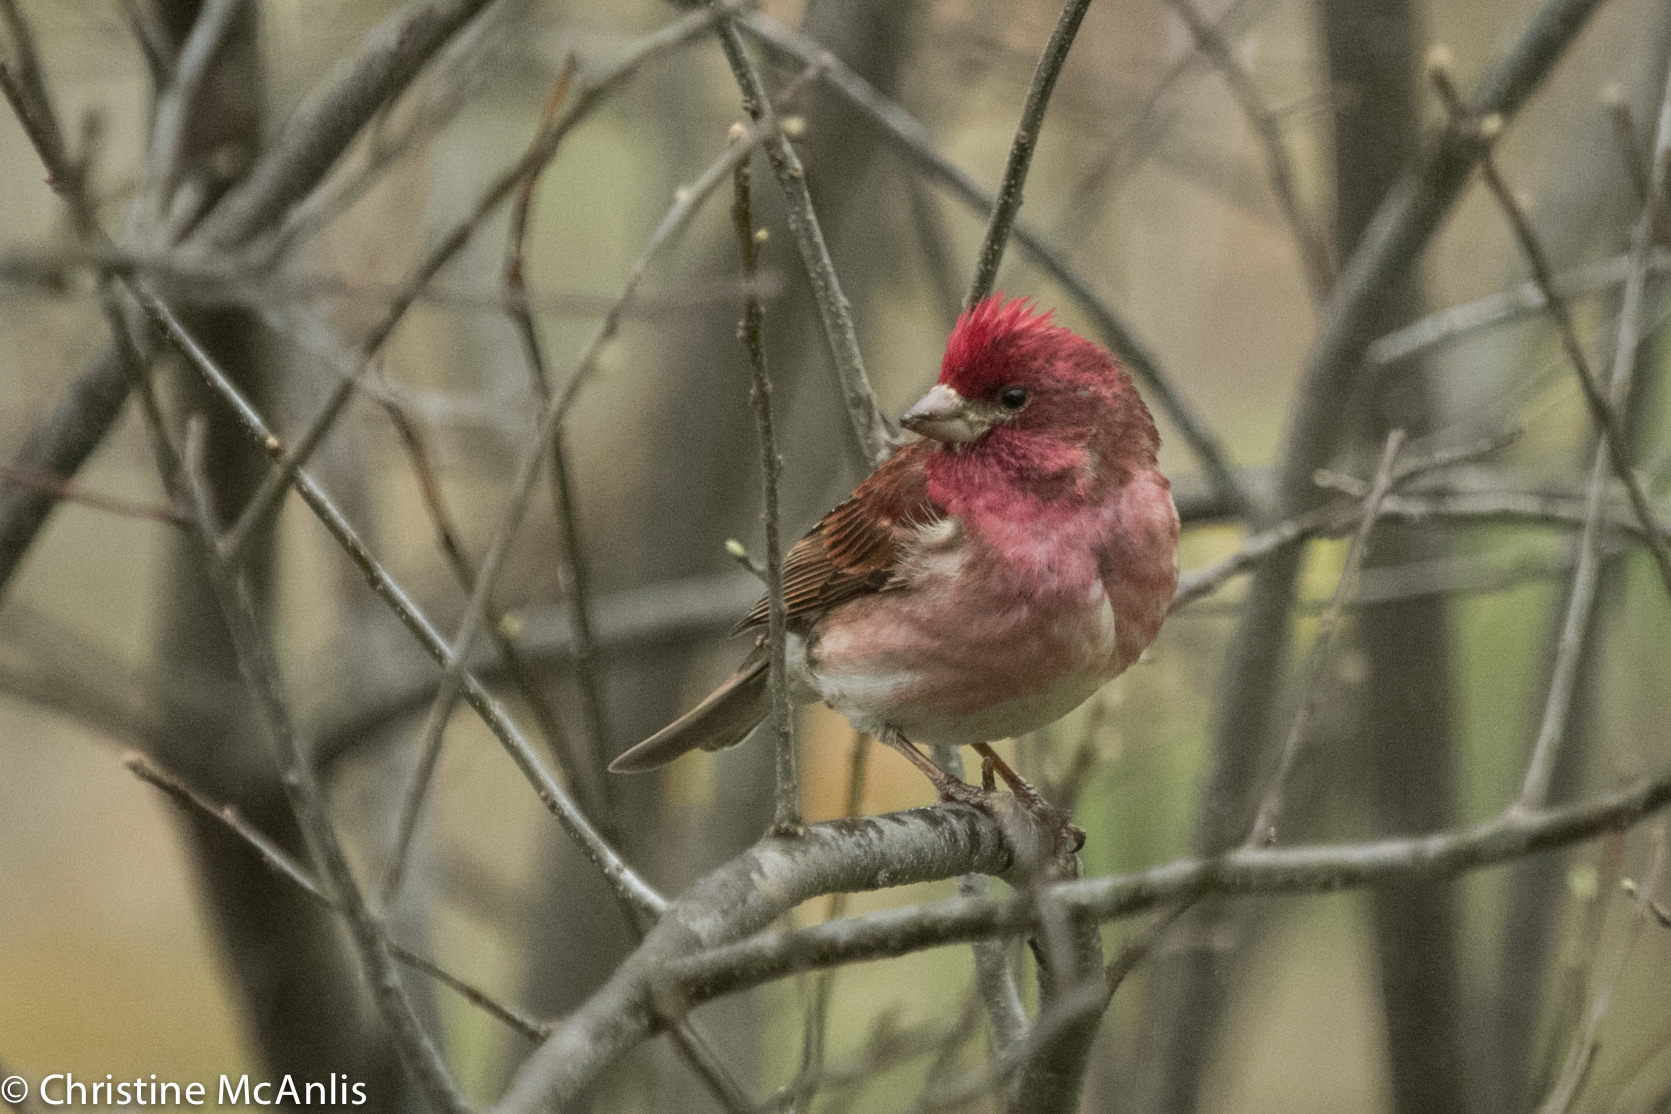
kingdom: Animalia
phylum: Chordata
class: Aves
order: Passeriformes
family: Fringillidae
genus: Haemorhous
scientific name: Haemorhous purpureus
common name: Purple finch
